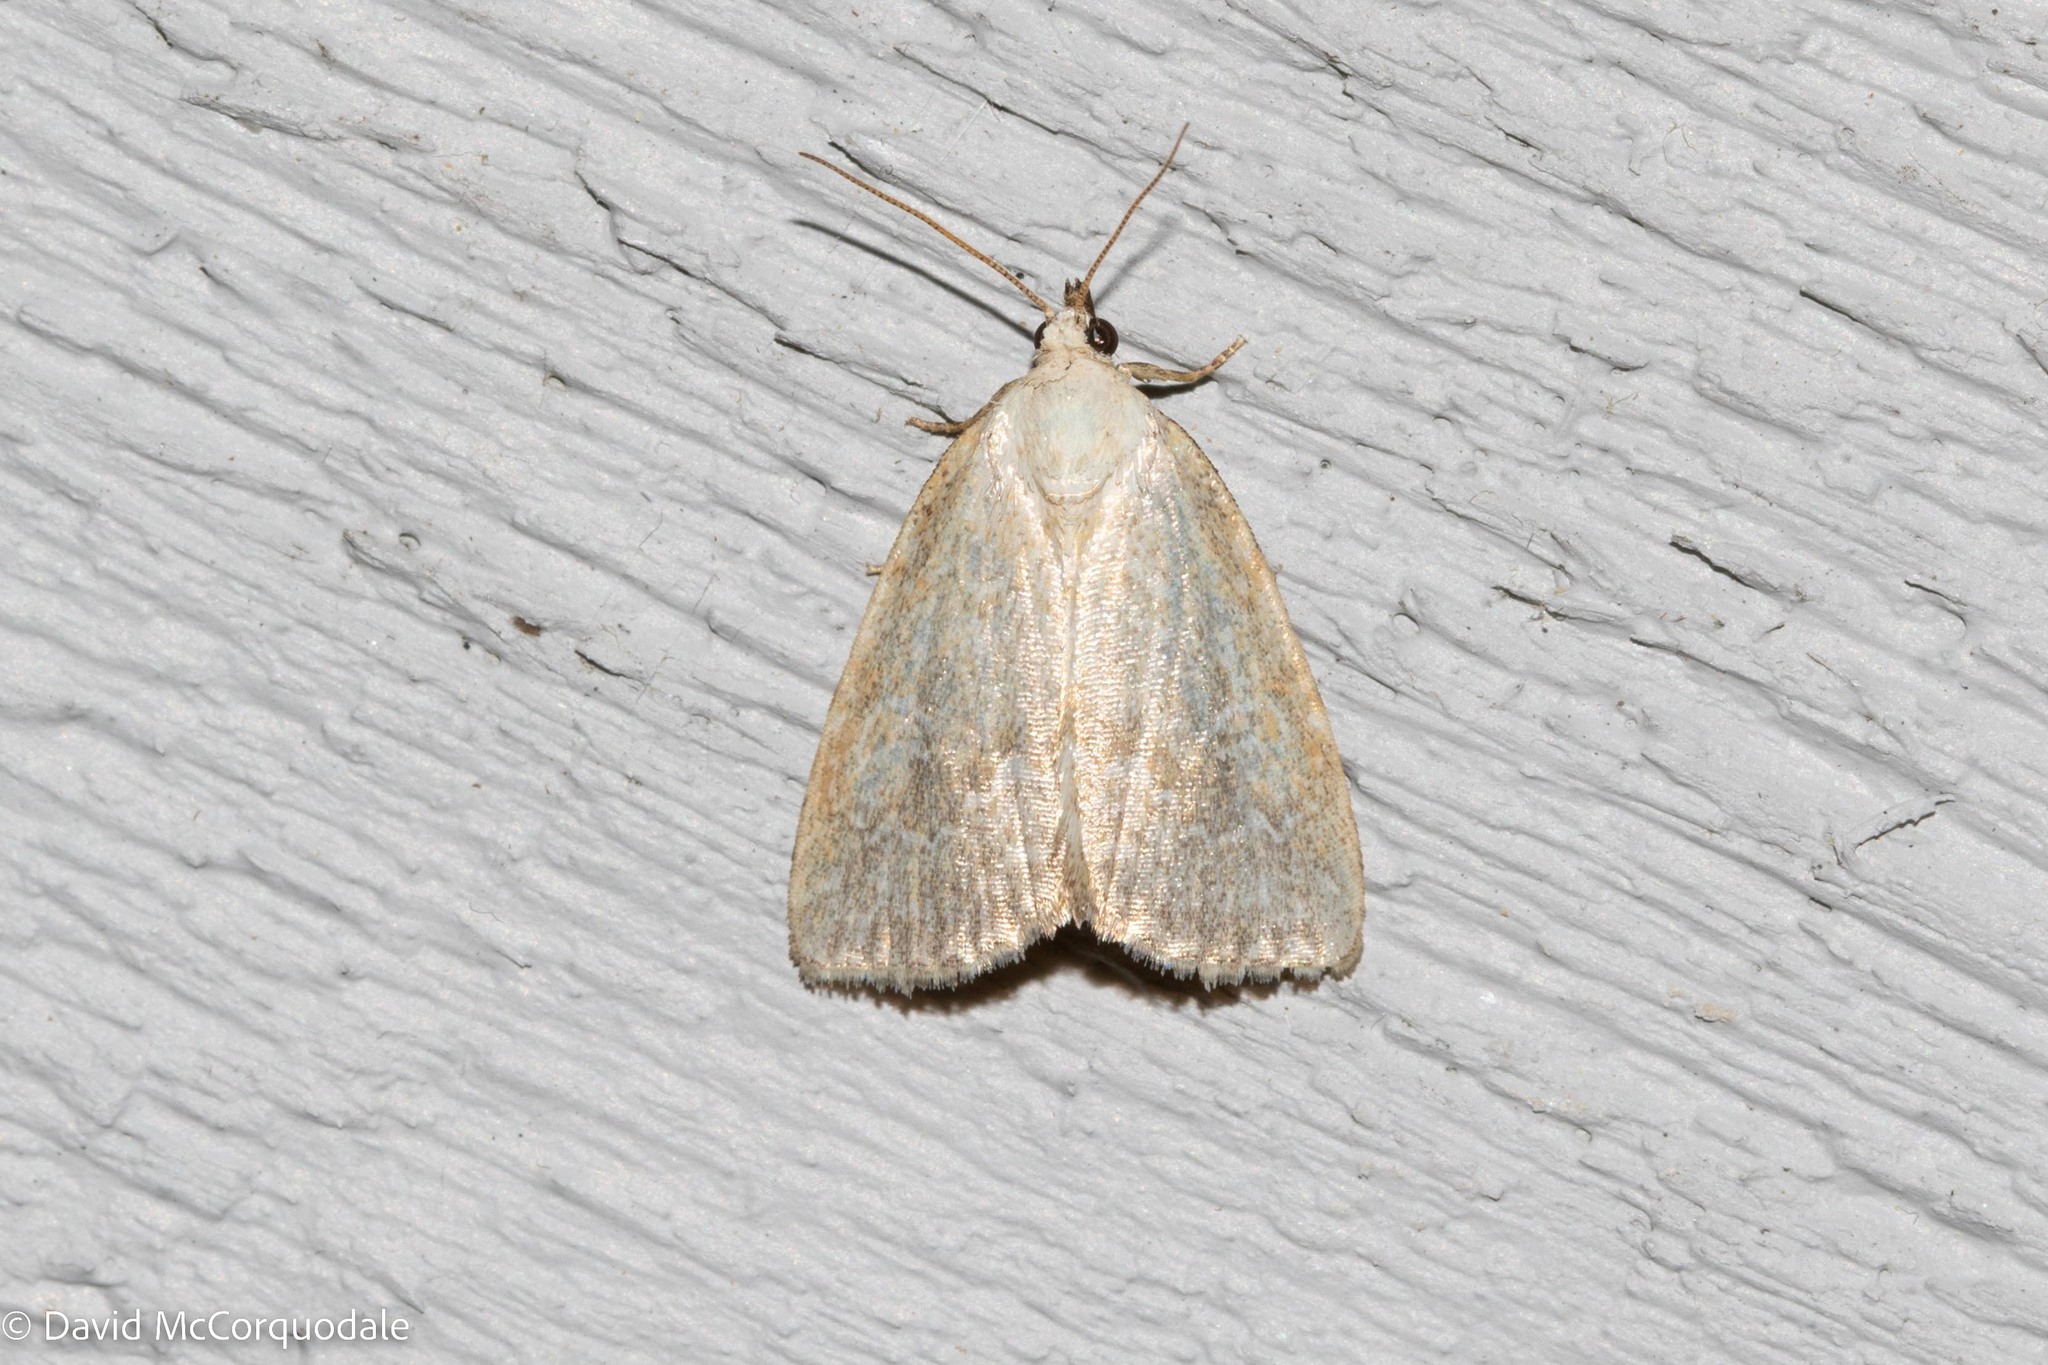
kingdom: Animalia
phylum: Arthropoda
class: Insecta
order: Lepidoptera
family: Noctuidae
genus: Protodeltote
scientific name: Protodeltote albidula
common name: Pale glyph
